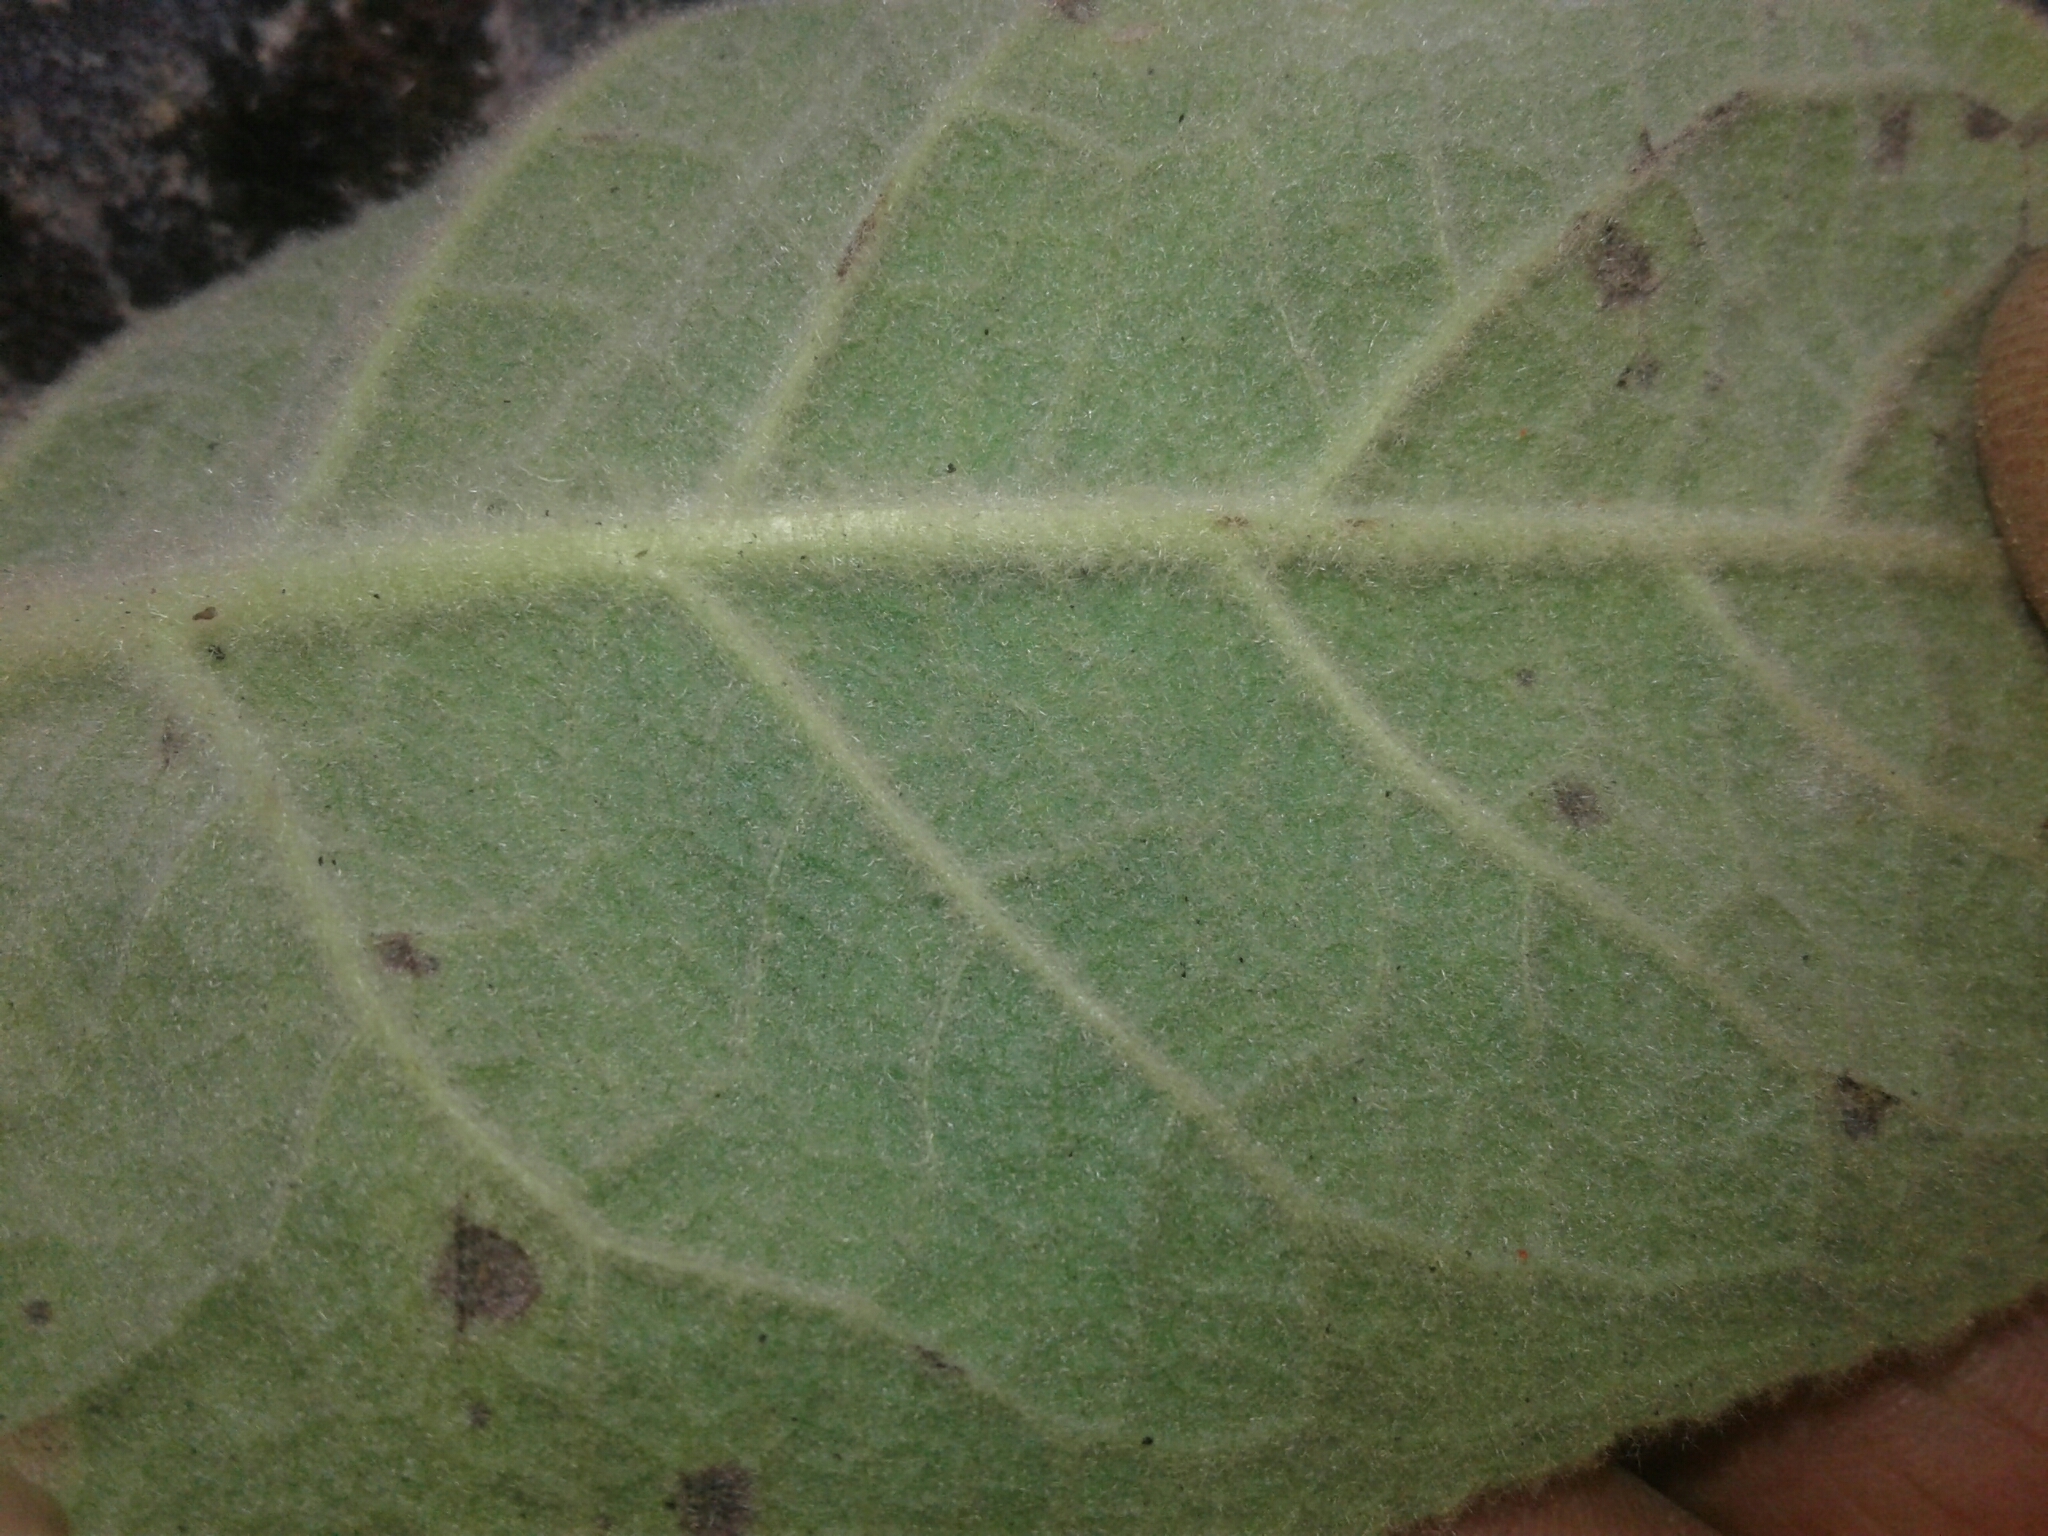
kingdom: Plantae
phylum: Tracheophyta
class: Magnoliopsida
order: Lamiales
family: Scrophulariaceae
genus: Verbascum
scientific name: Verbascum thapsus
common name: Common mullein
